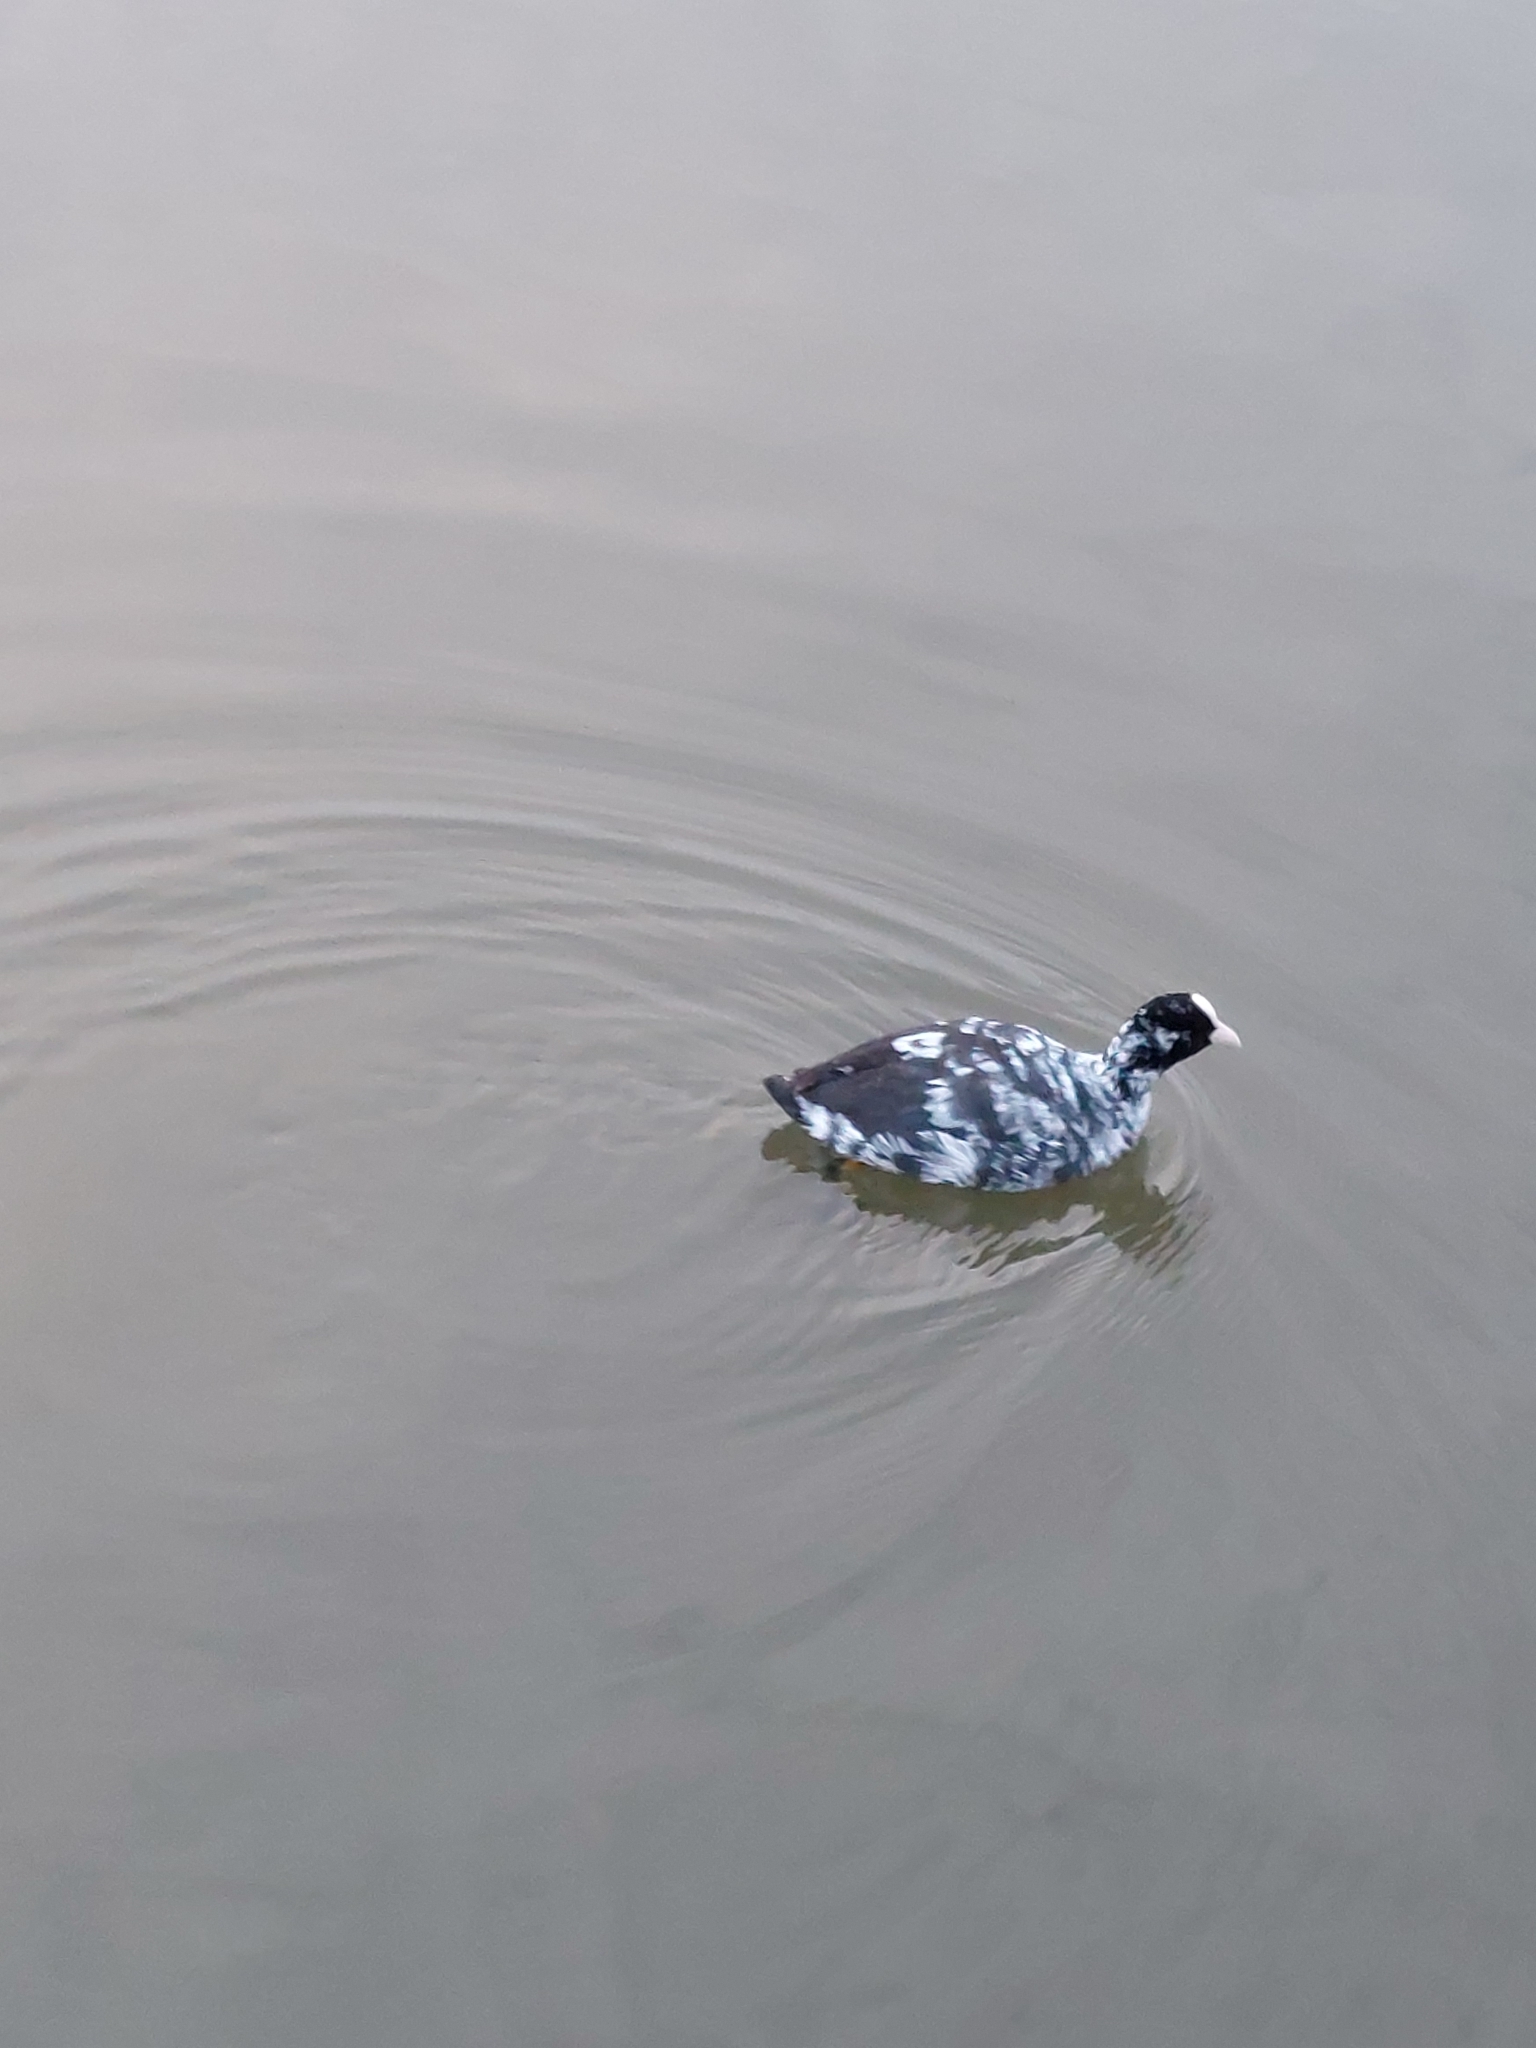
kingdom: Animalia
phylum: Chordata
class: Aves
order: Gruiformes
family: Rallidae
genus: Fulica
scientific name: Fulica atra
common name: Eurasian coot
